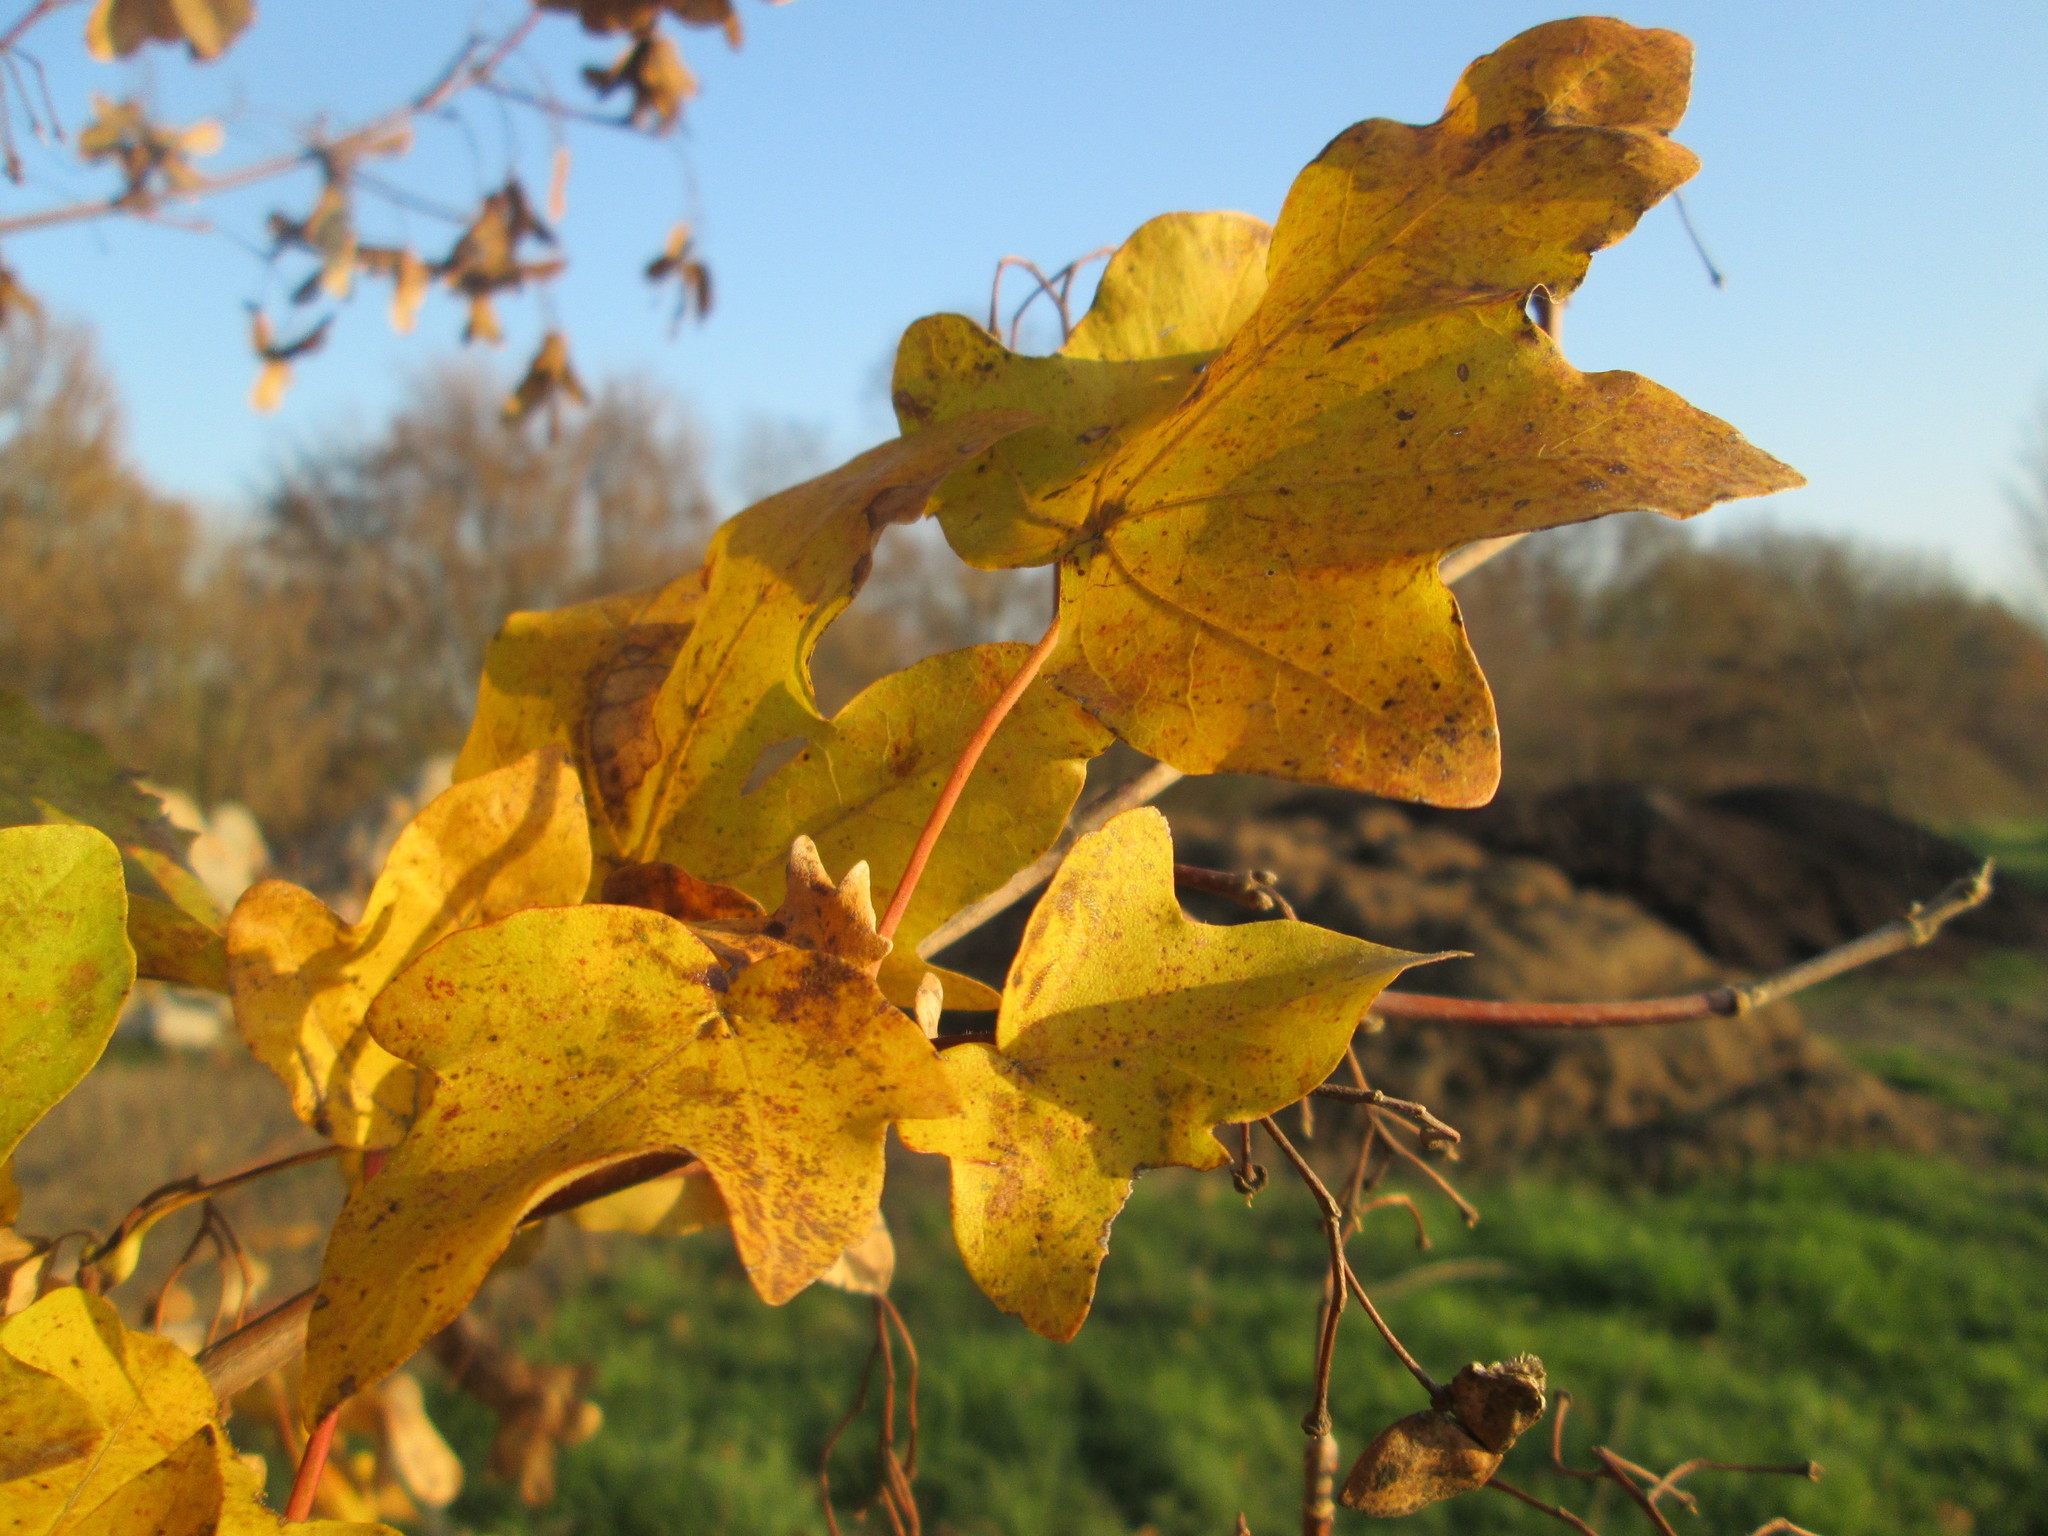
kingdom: Plantae
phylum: Tracheophyta
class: Magnoliopsida
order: Sapindales
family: Sapindaceae
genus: Acer
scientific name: Acer campestre
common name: Field maple
